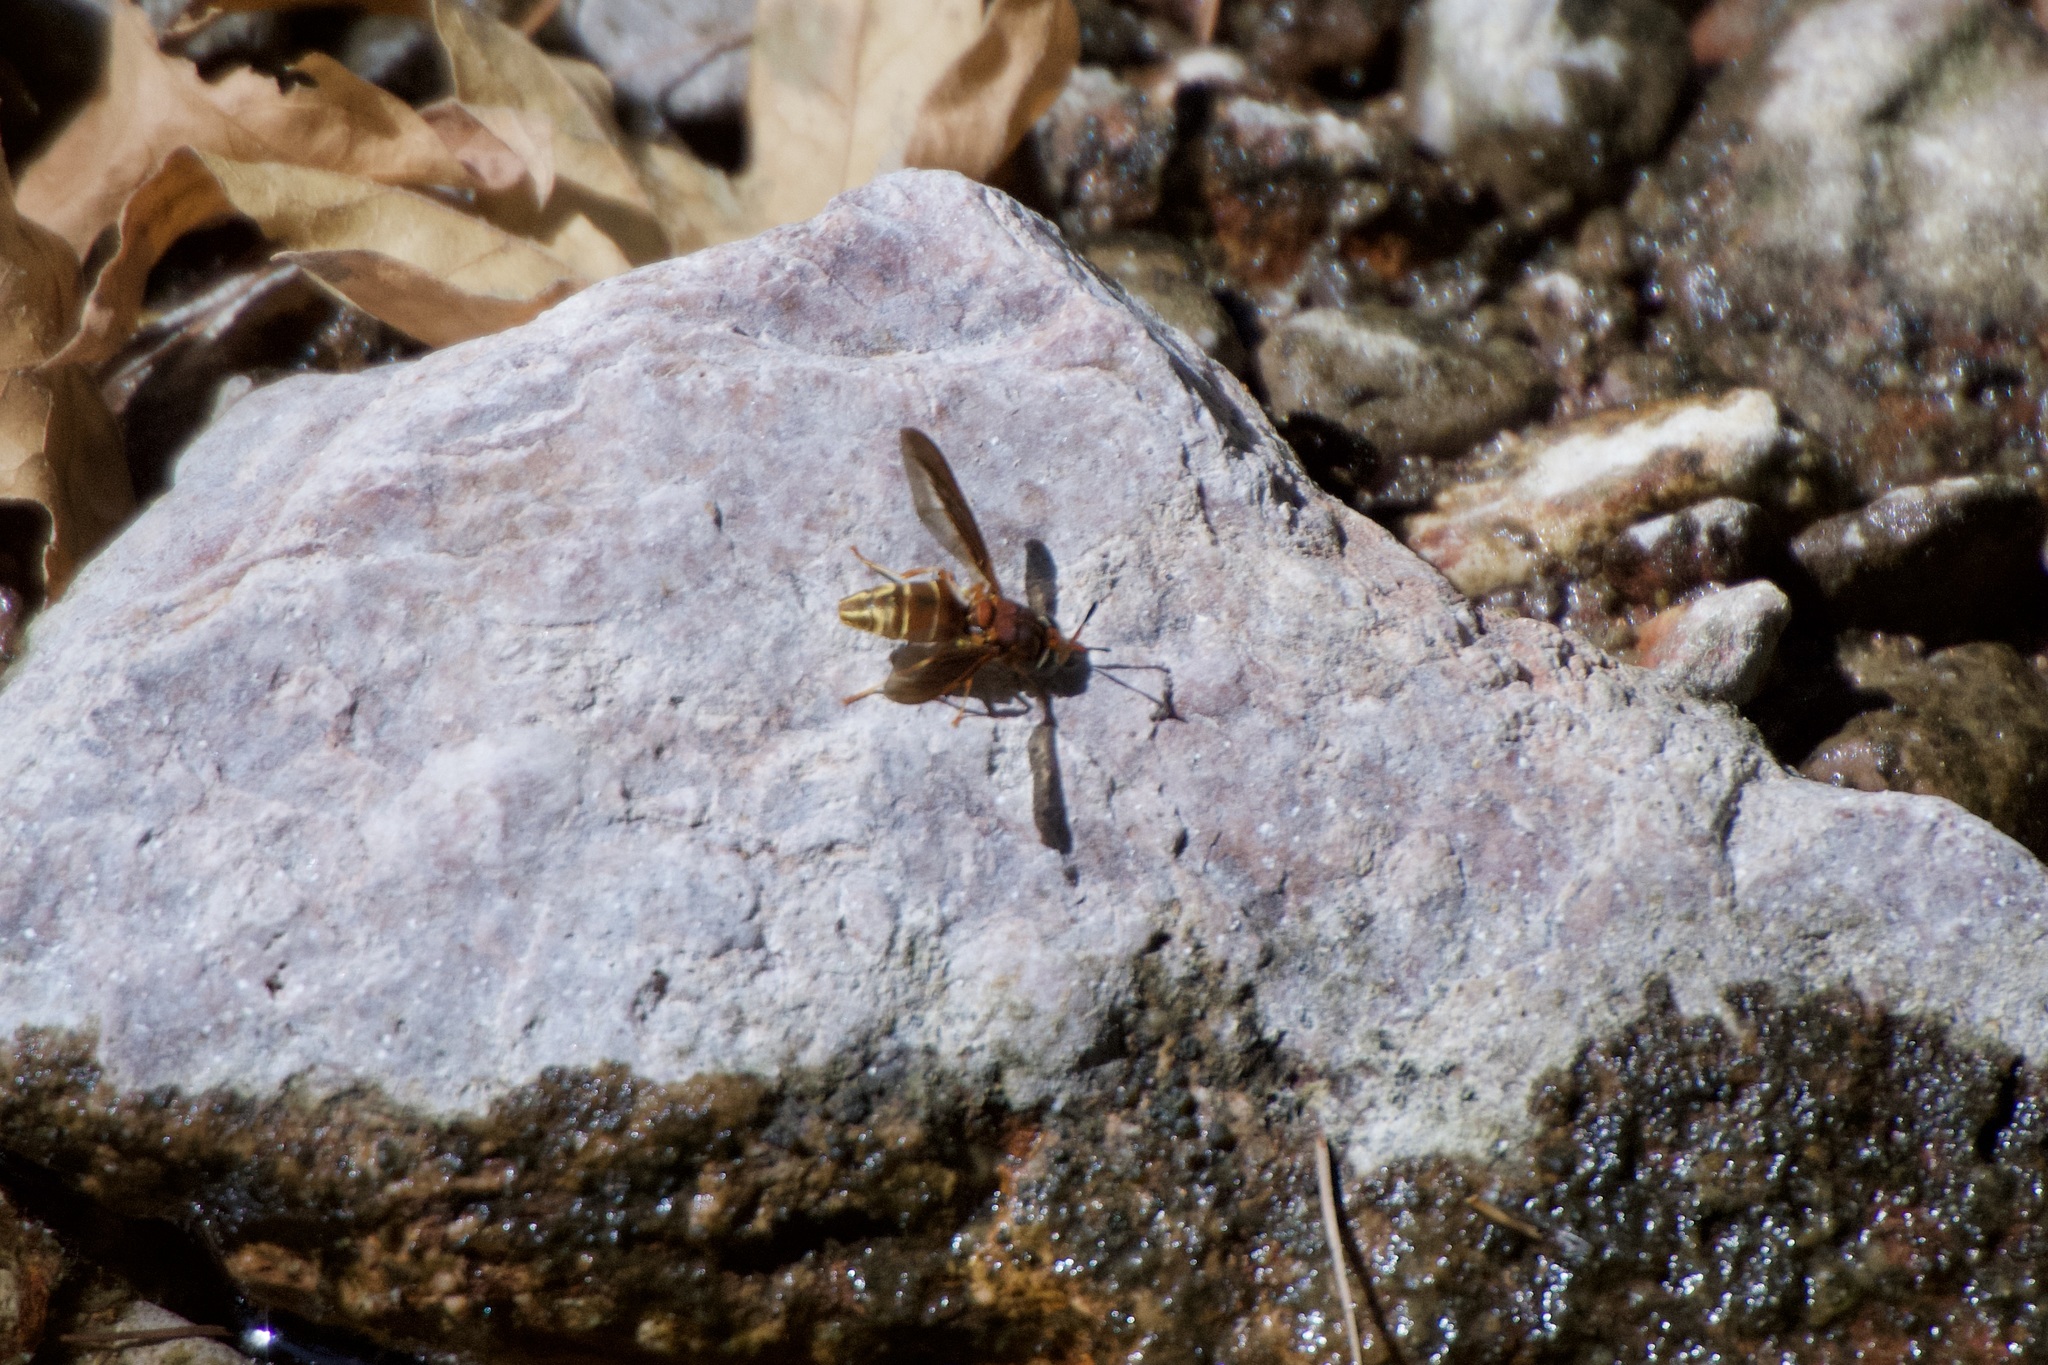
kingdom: Animalia
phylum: Arthropoda
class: Insecta
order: Diptera
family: Stratiomyidae
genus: Hermetia
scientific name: Hermetia comstocki
